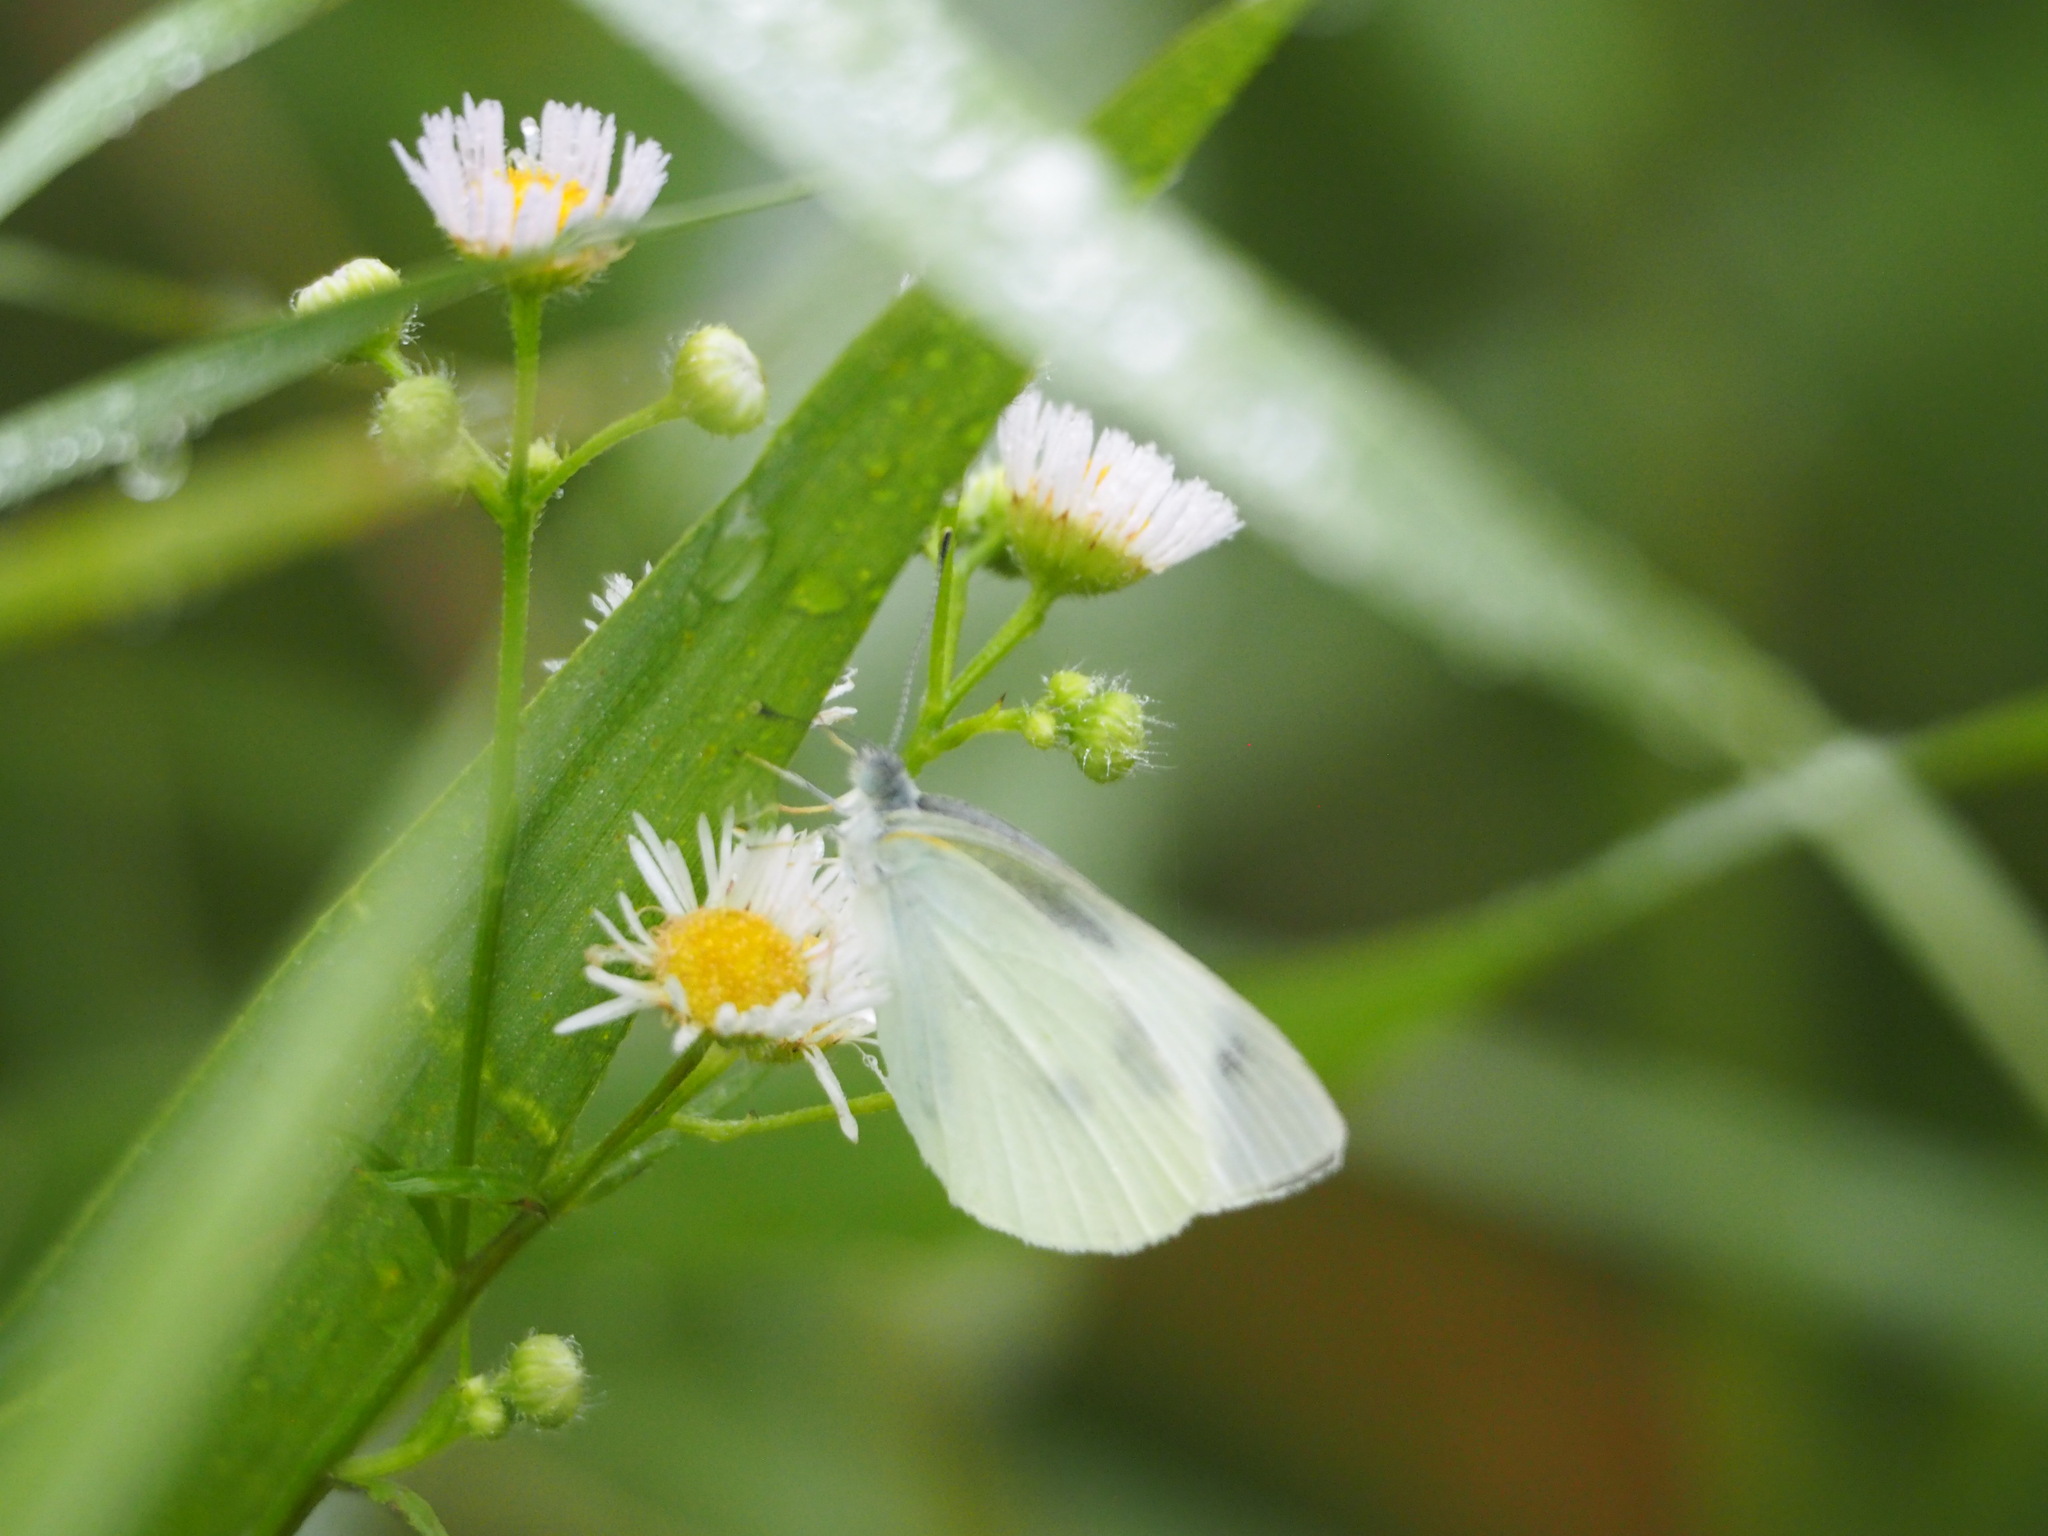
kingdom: Animalia
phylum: Arthropoda
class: Insecta
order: Lepidoptera
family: Pieridae
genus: Pieris
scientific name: Pieris rapae
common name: Small white
